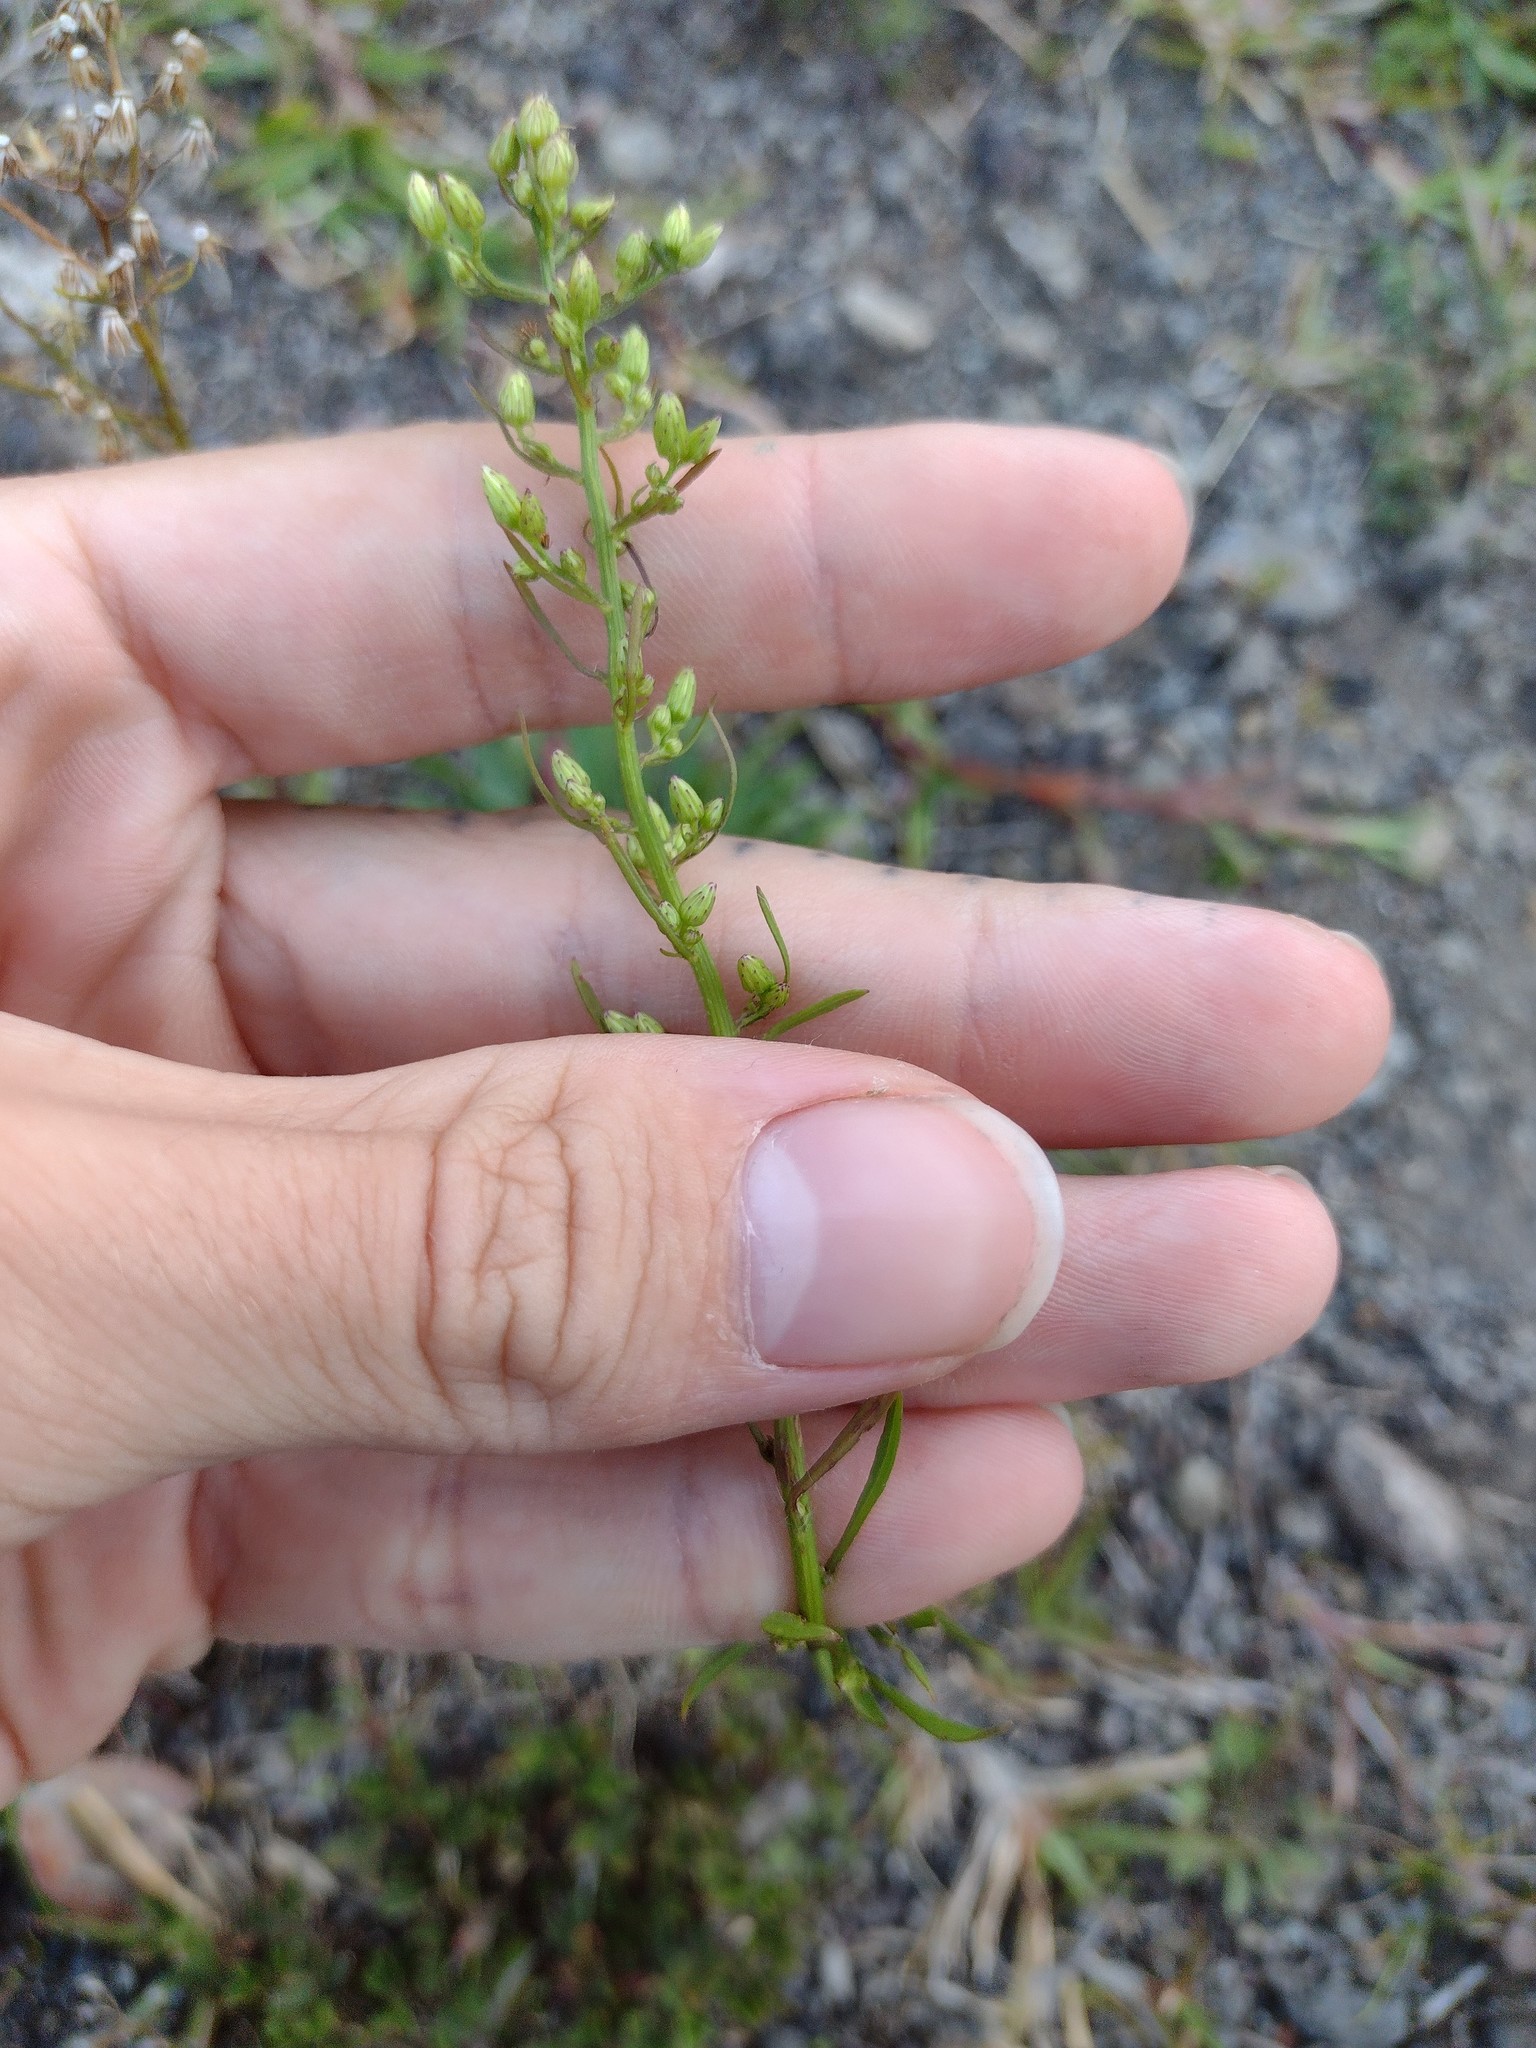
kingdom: Plantae
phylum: Tracheophyta
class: Magnoliopsida
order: Asterales
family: Asteraceae
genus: Erigeron
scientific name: Erigeron canadensis
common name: Canadian fleabane
